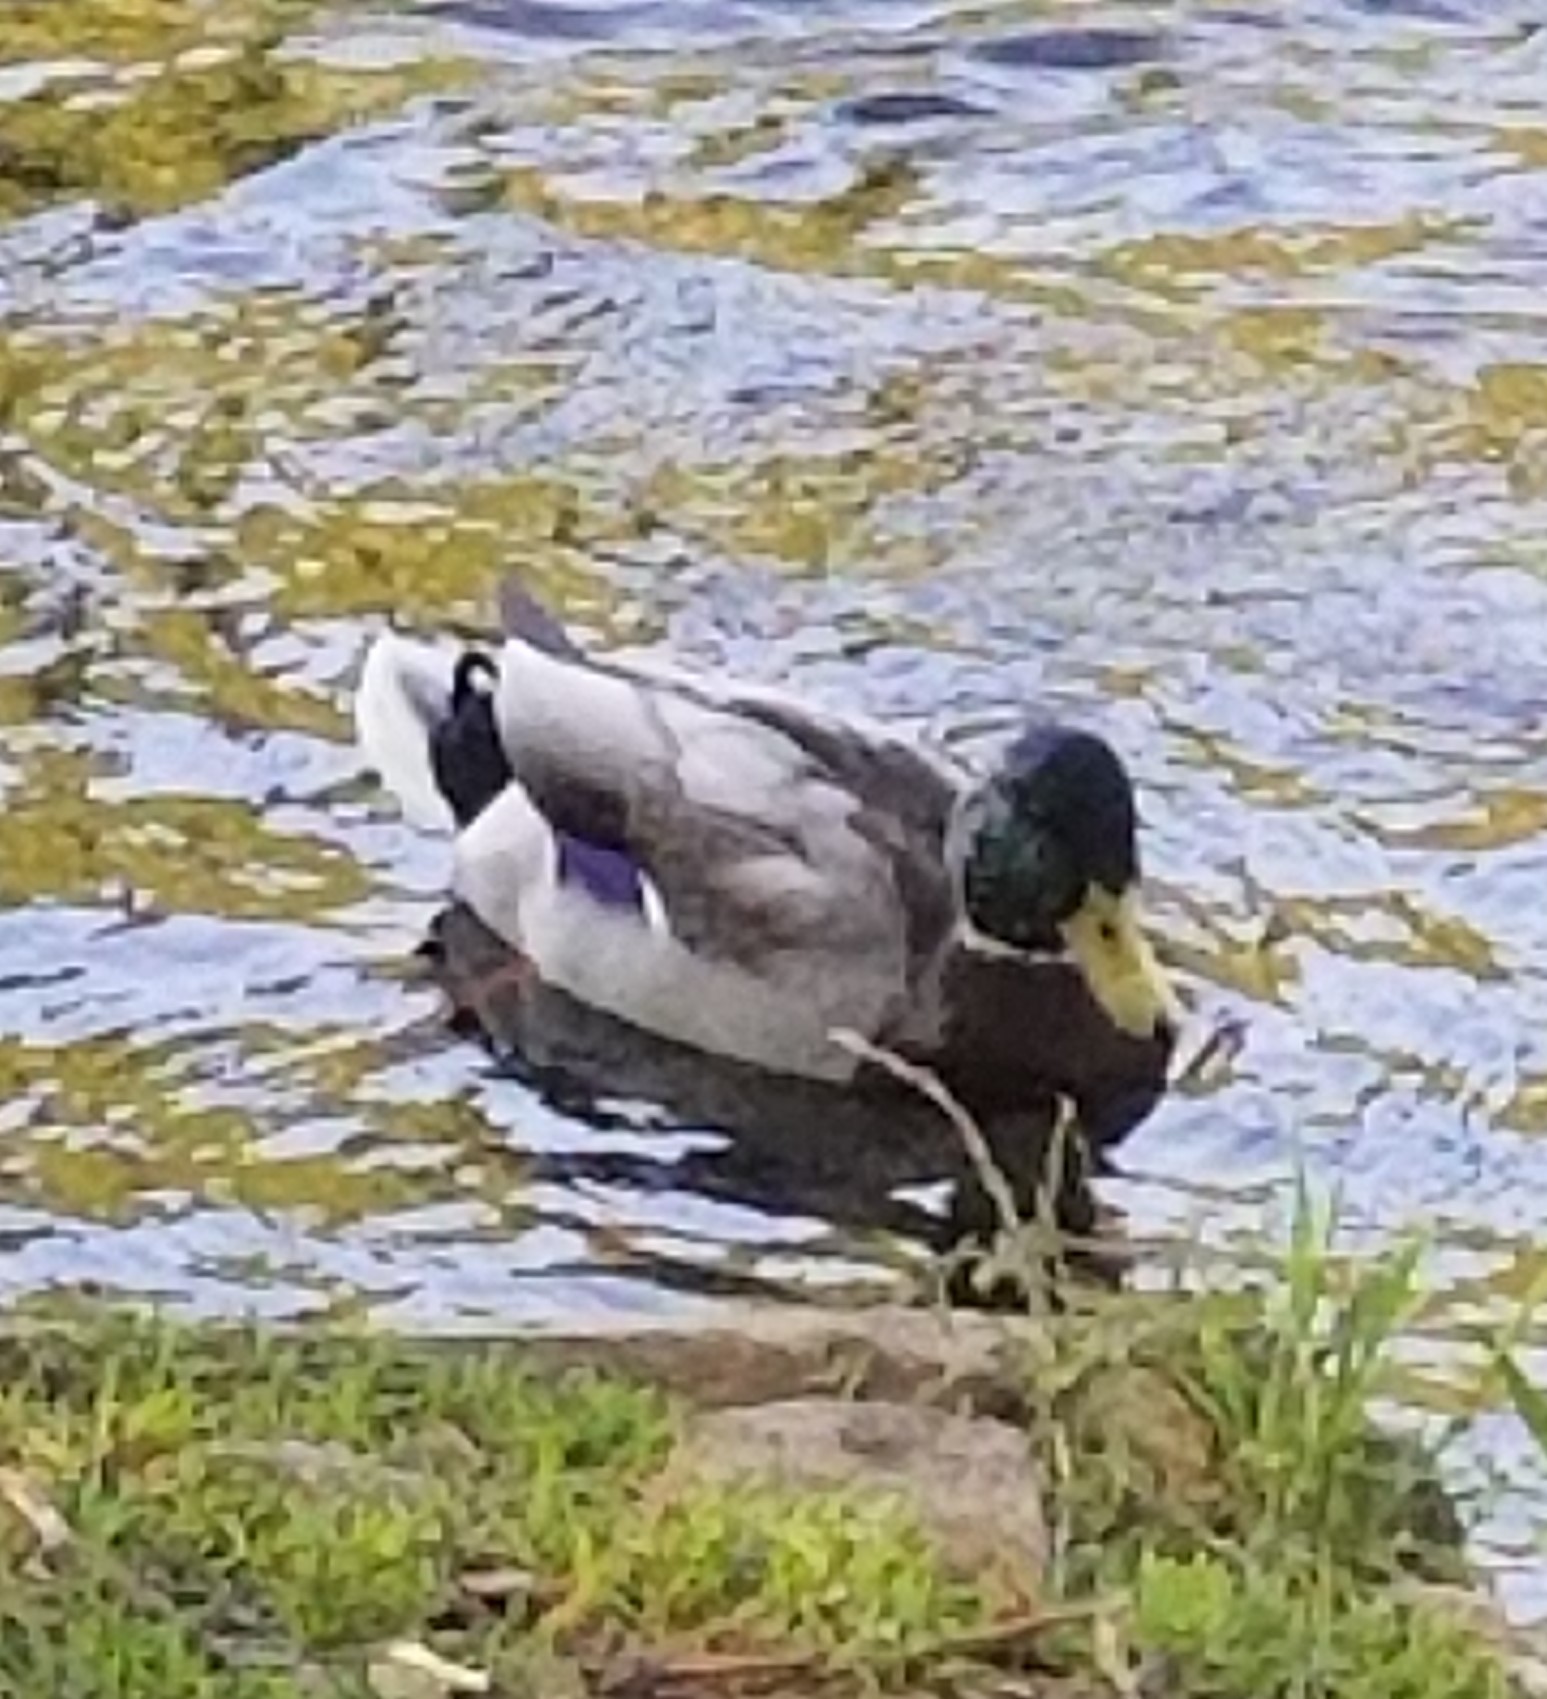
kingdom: Animalia
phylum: Chordata
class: Aves
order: Anseriformes
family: Anatidae
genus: Anas
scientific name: Anas platyrhynchos
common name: Mallard
